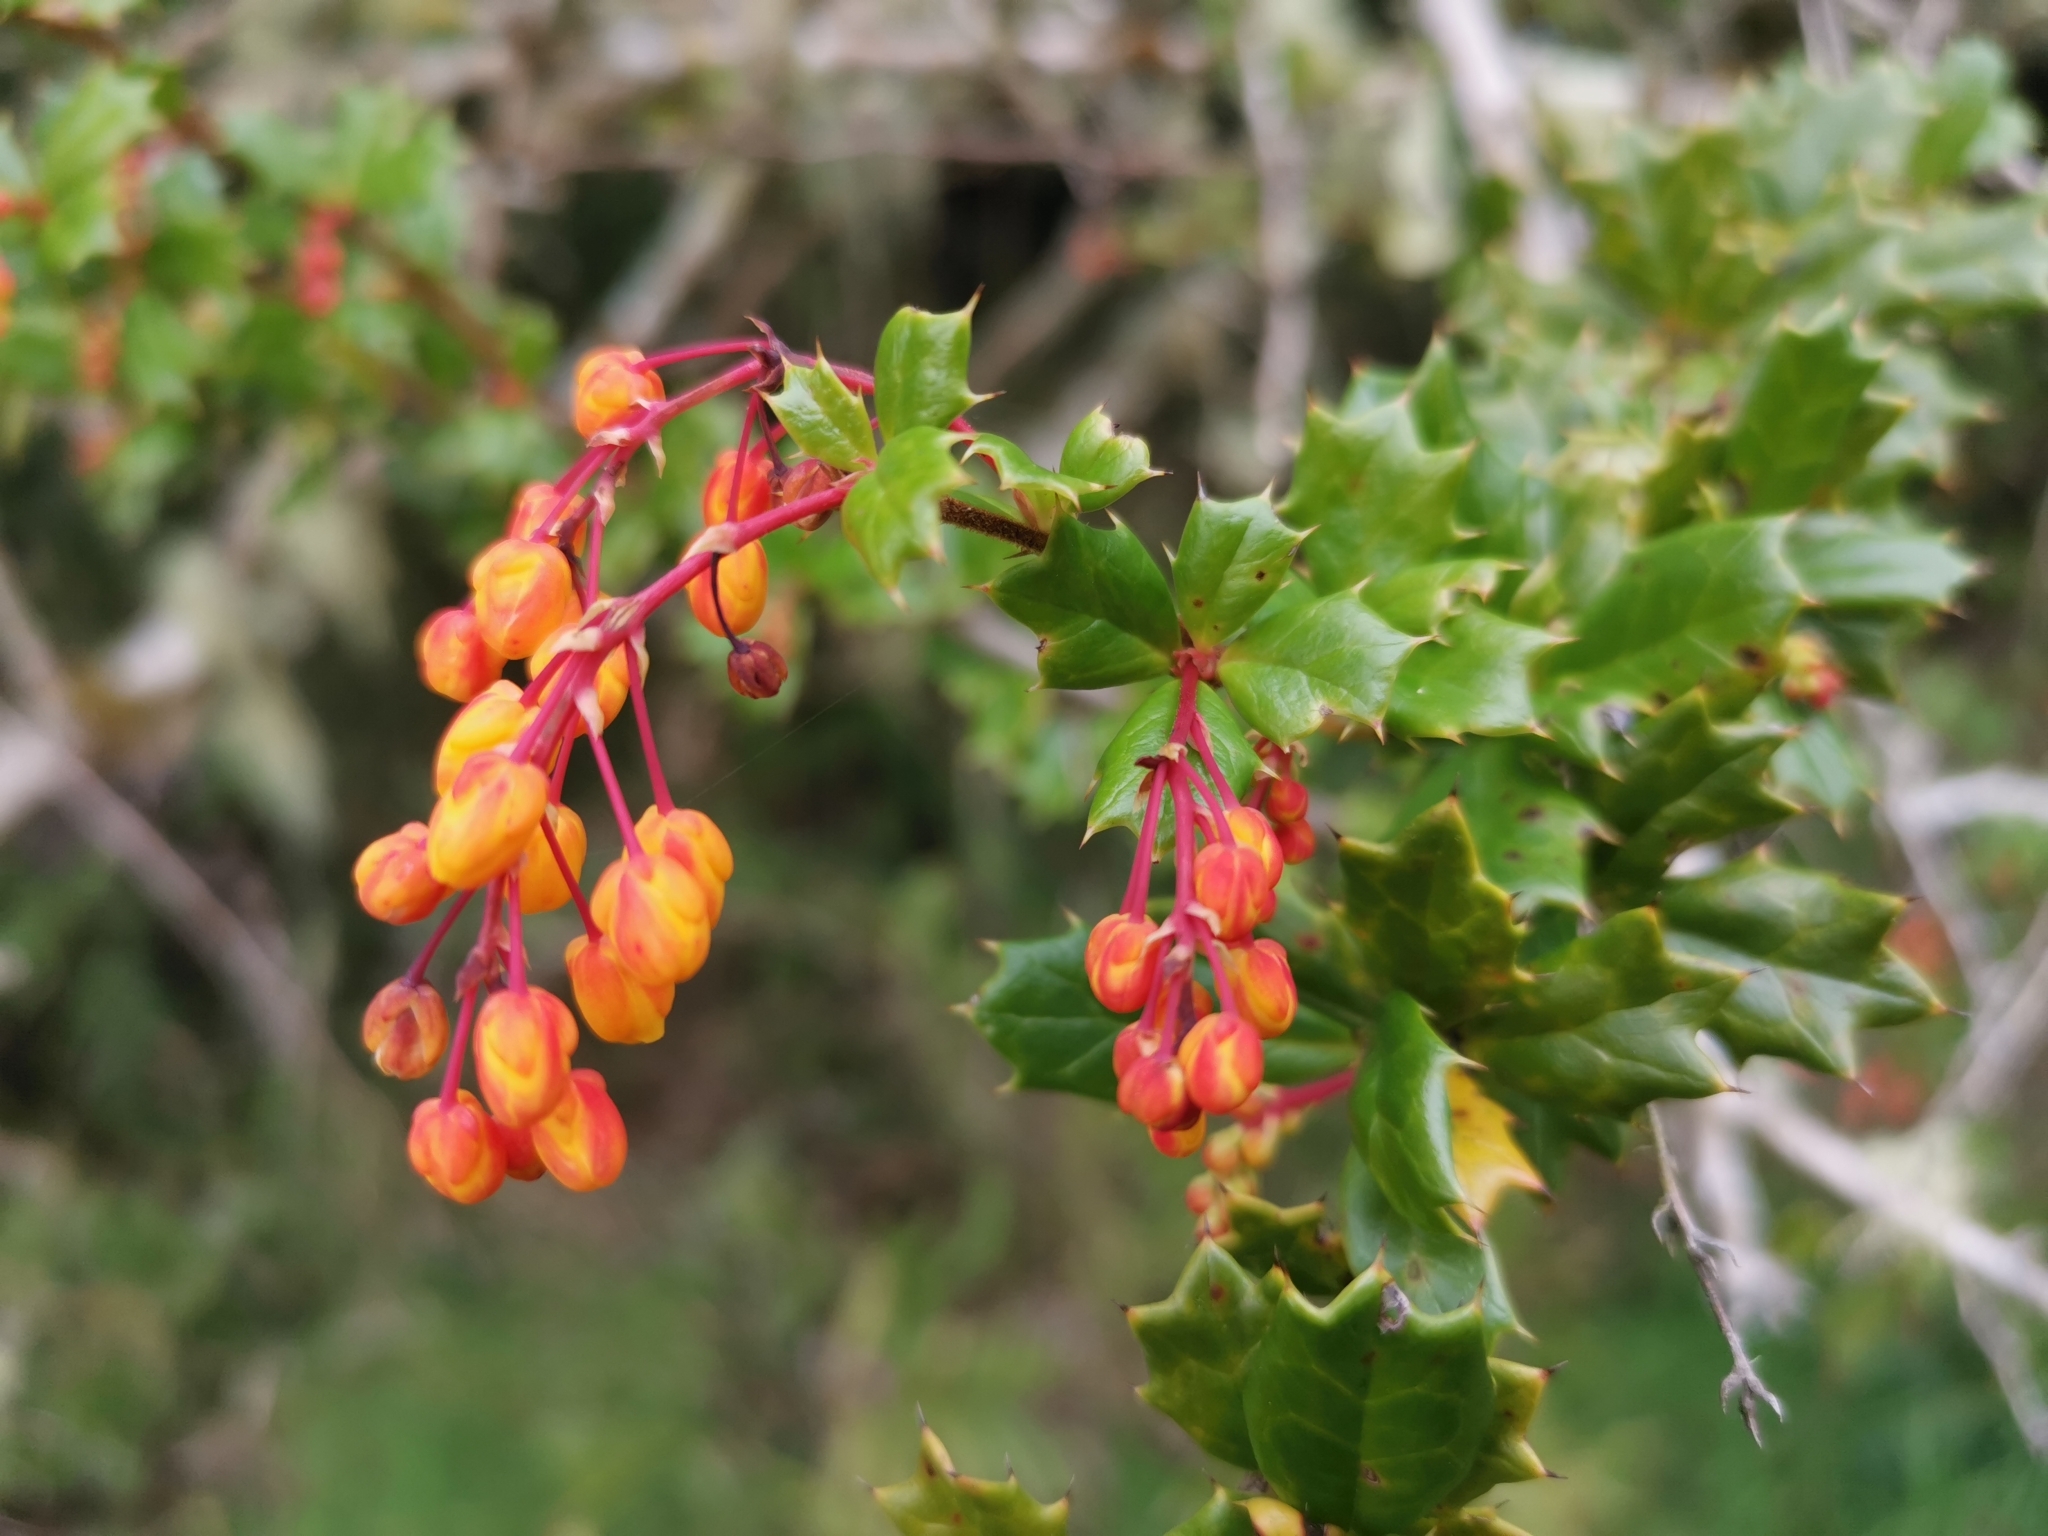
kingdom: Plantae
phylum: Tracheophyta
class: Magnoliopsida
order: Ranunculales
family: Berberidaceae
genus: Berberis
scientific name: Berberis darwinii
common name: Darwin's barberry
